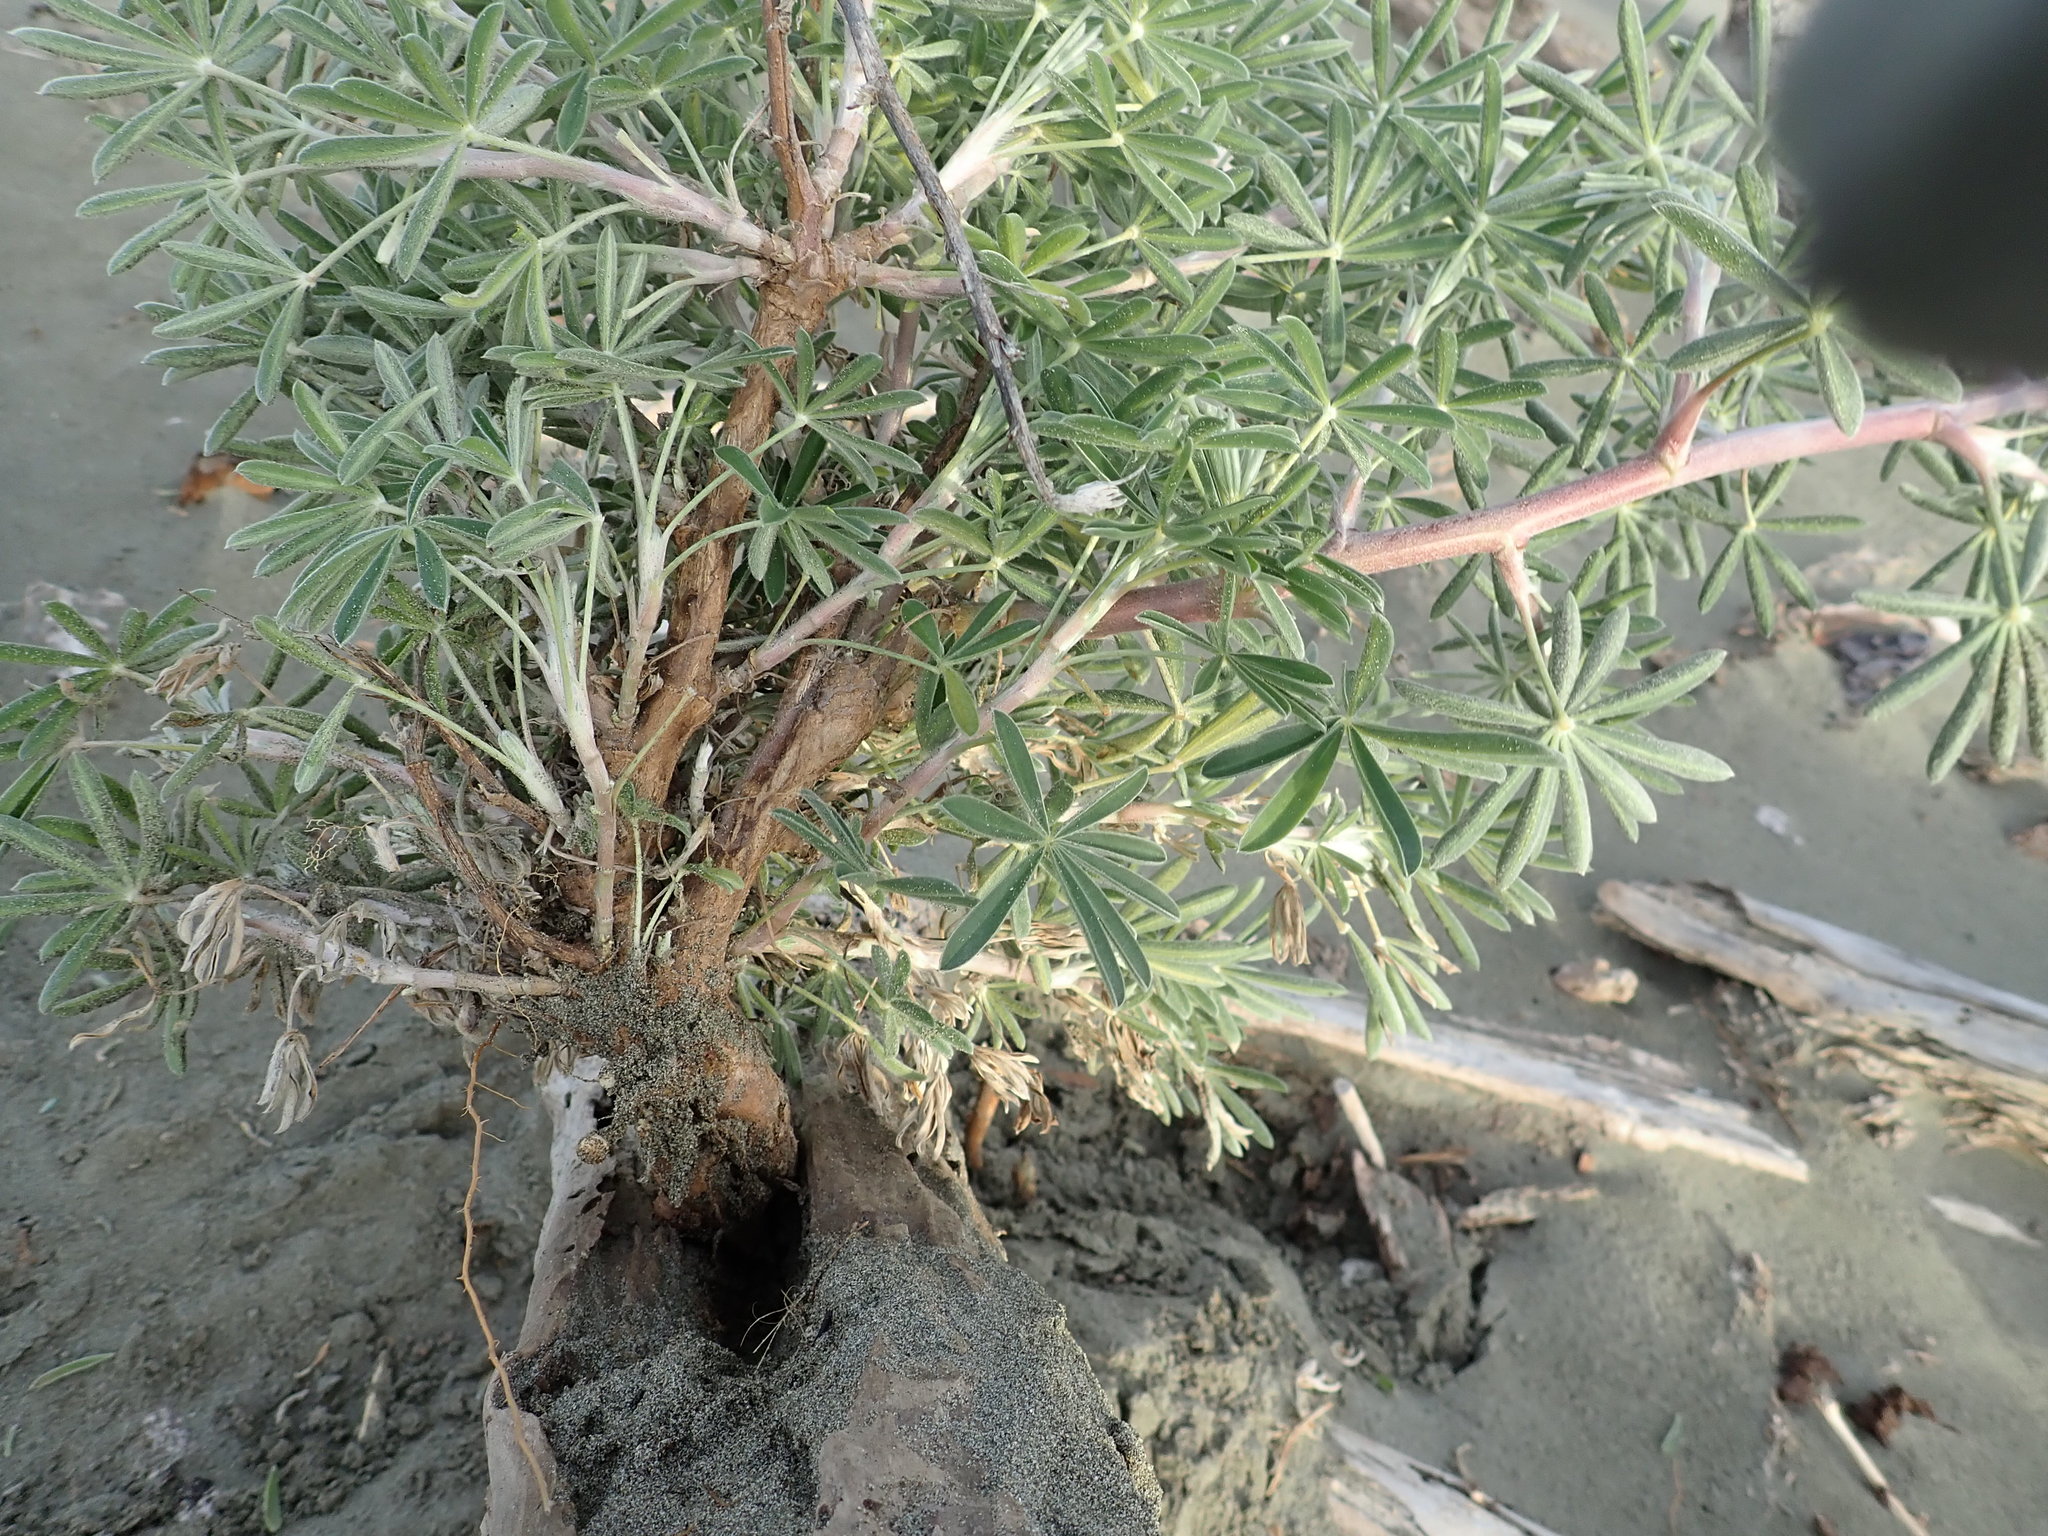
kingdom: Plantae
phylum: Tracheophyta
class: Magnoliopsida
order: Fabales
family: Fabaceae
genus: Lupinus
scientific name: Lupinus arboreus
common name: Yellow bush lupine
